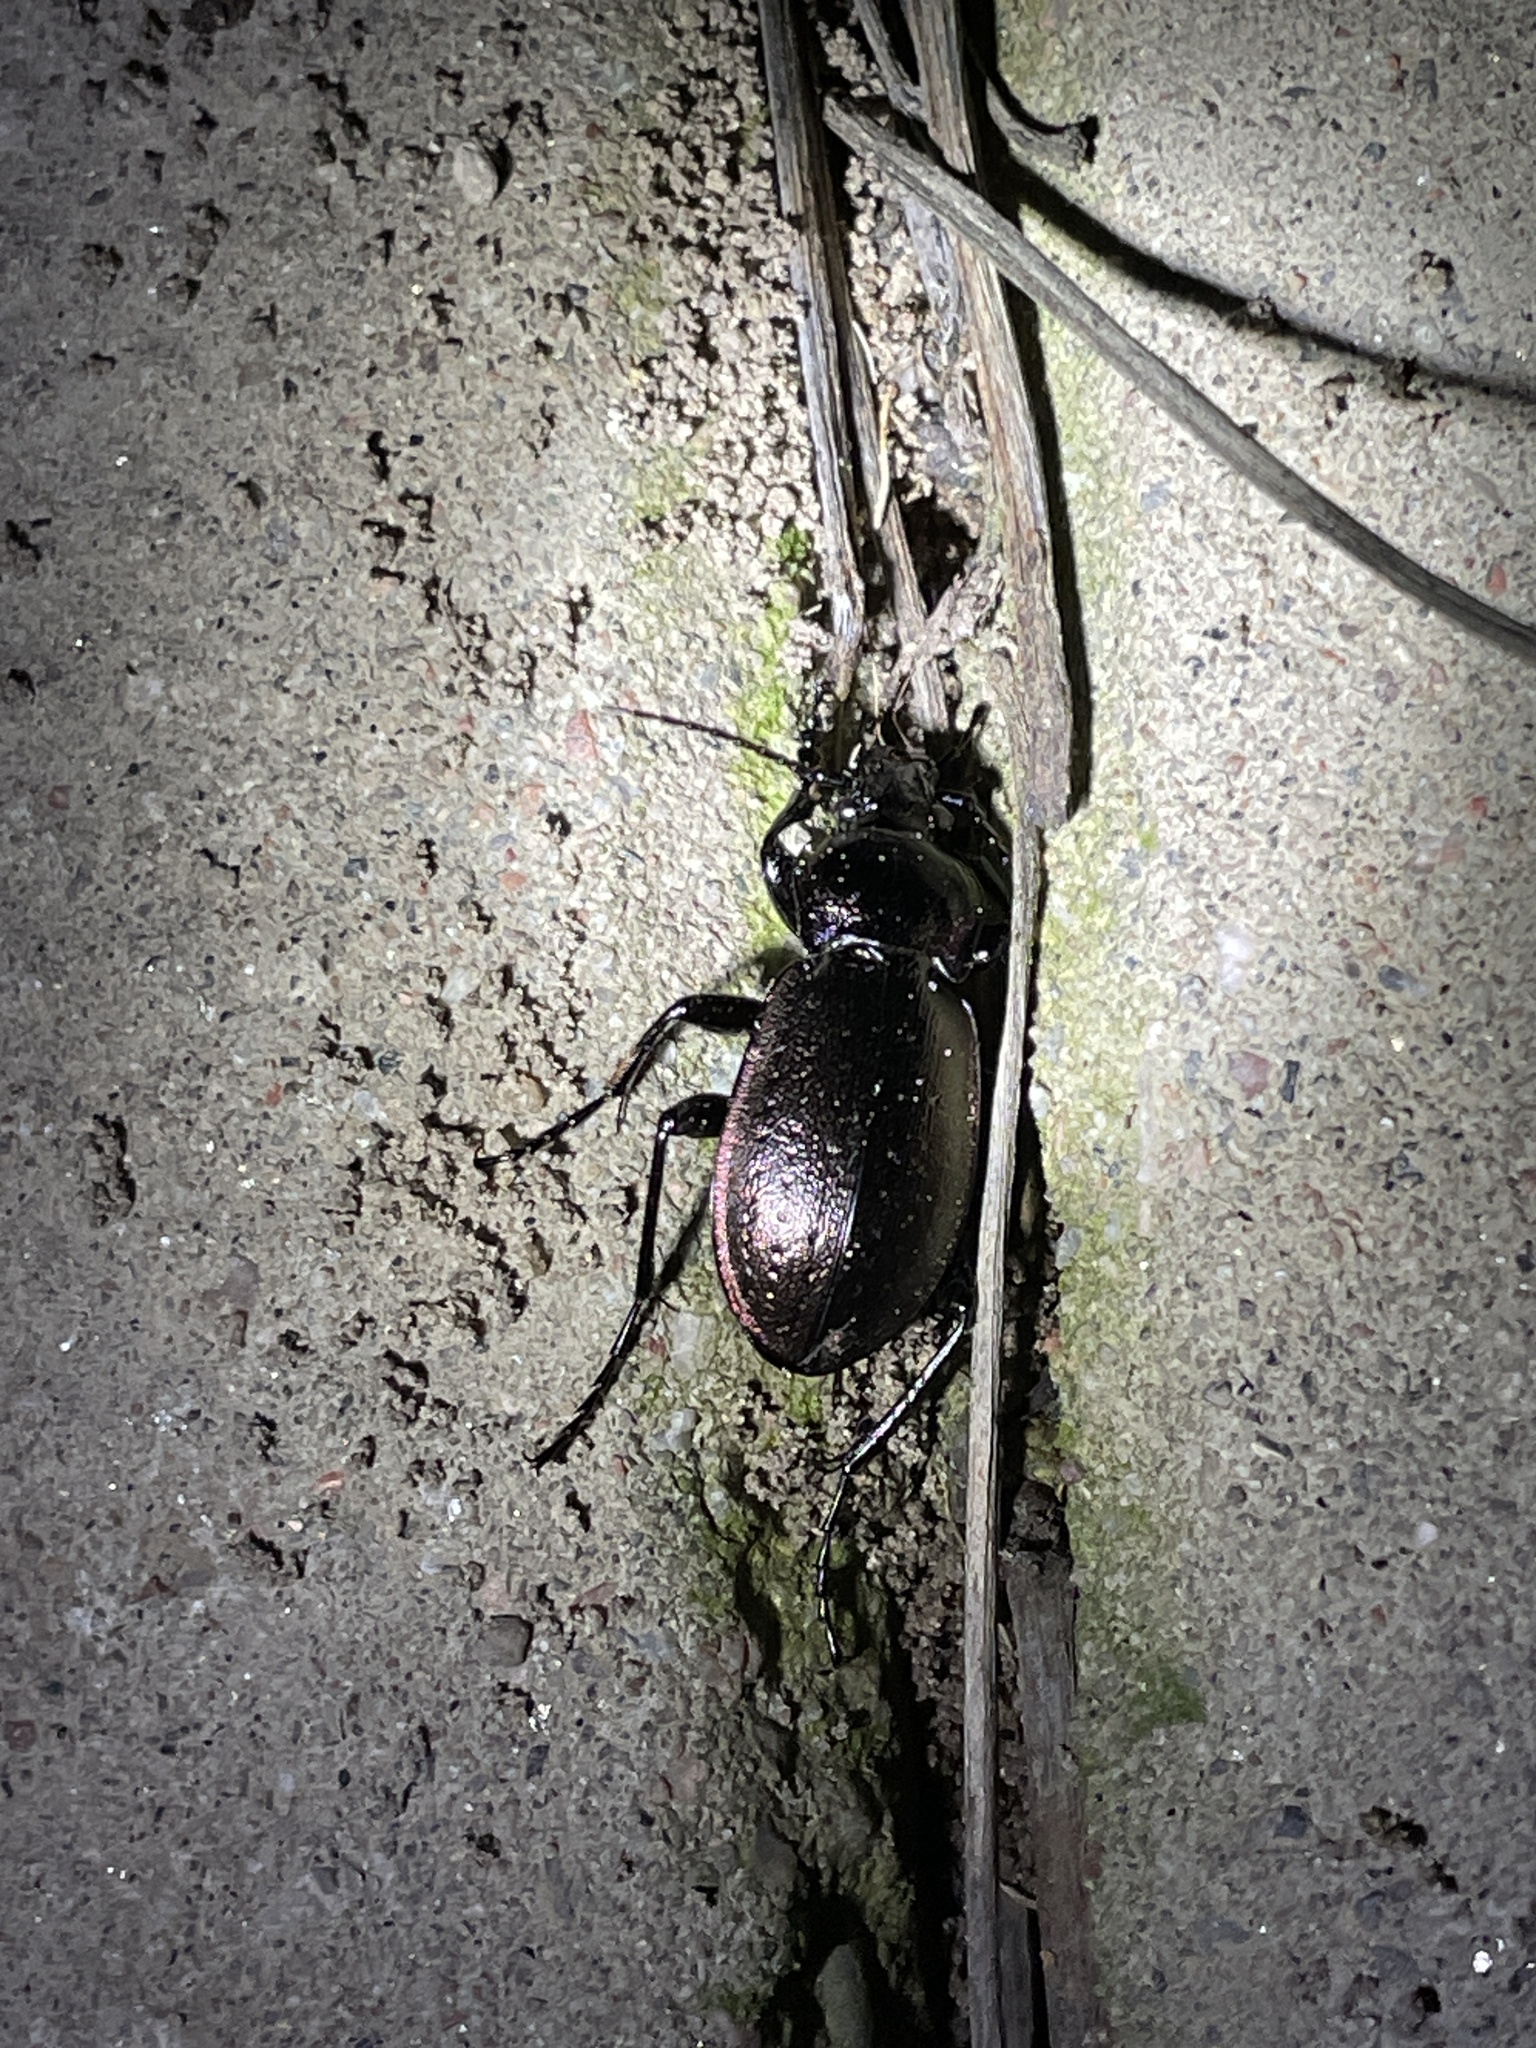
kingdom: Animalia
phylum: Arthropoda
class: Insecta
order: Coleoptera
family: Carabidae
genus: Carabus
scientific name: Carabus nemoralis
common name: European ground beetle
